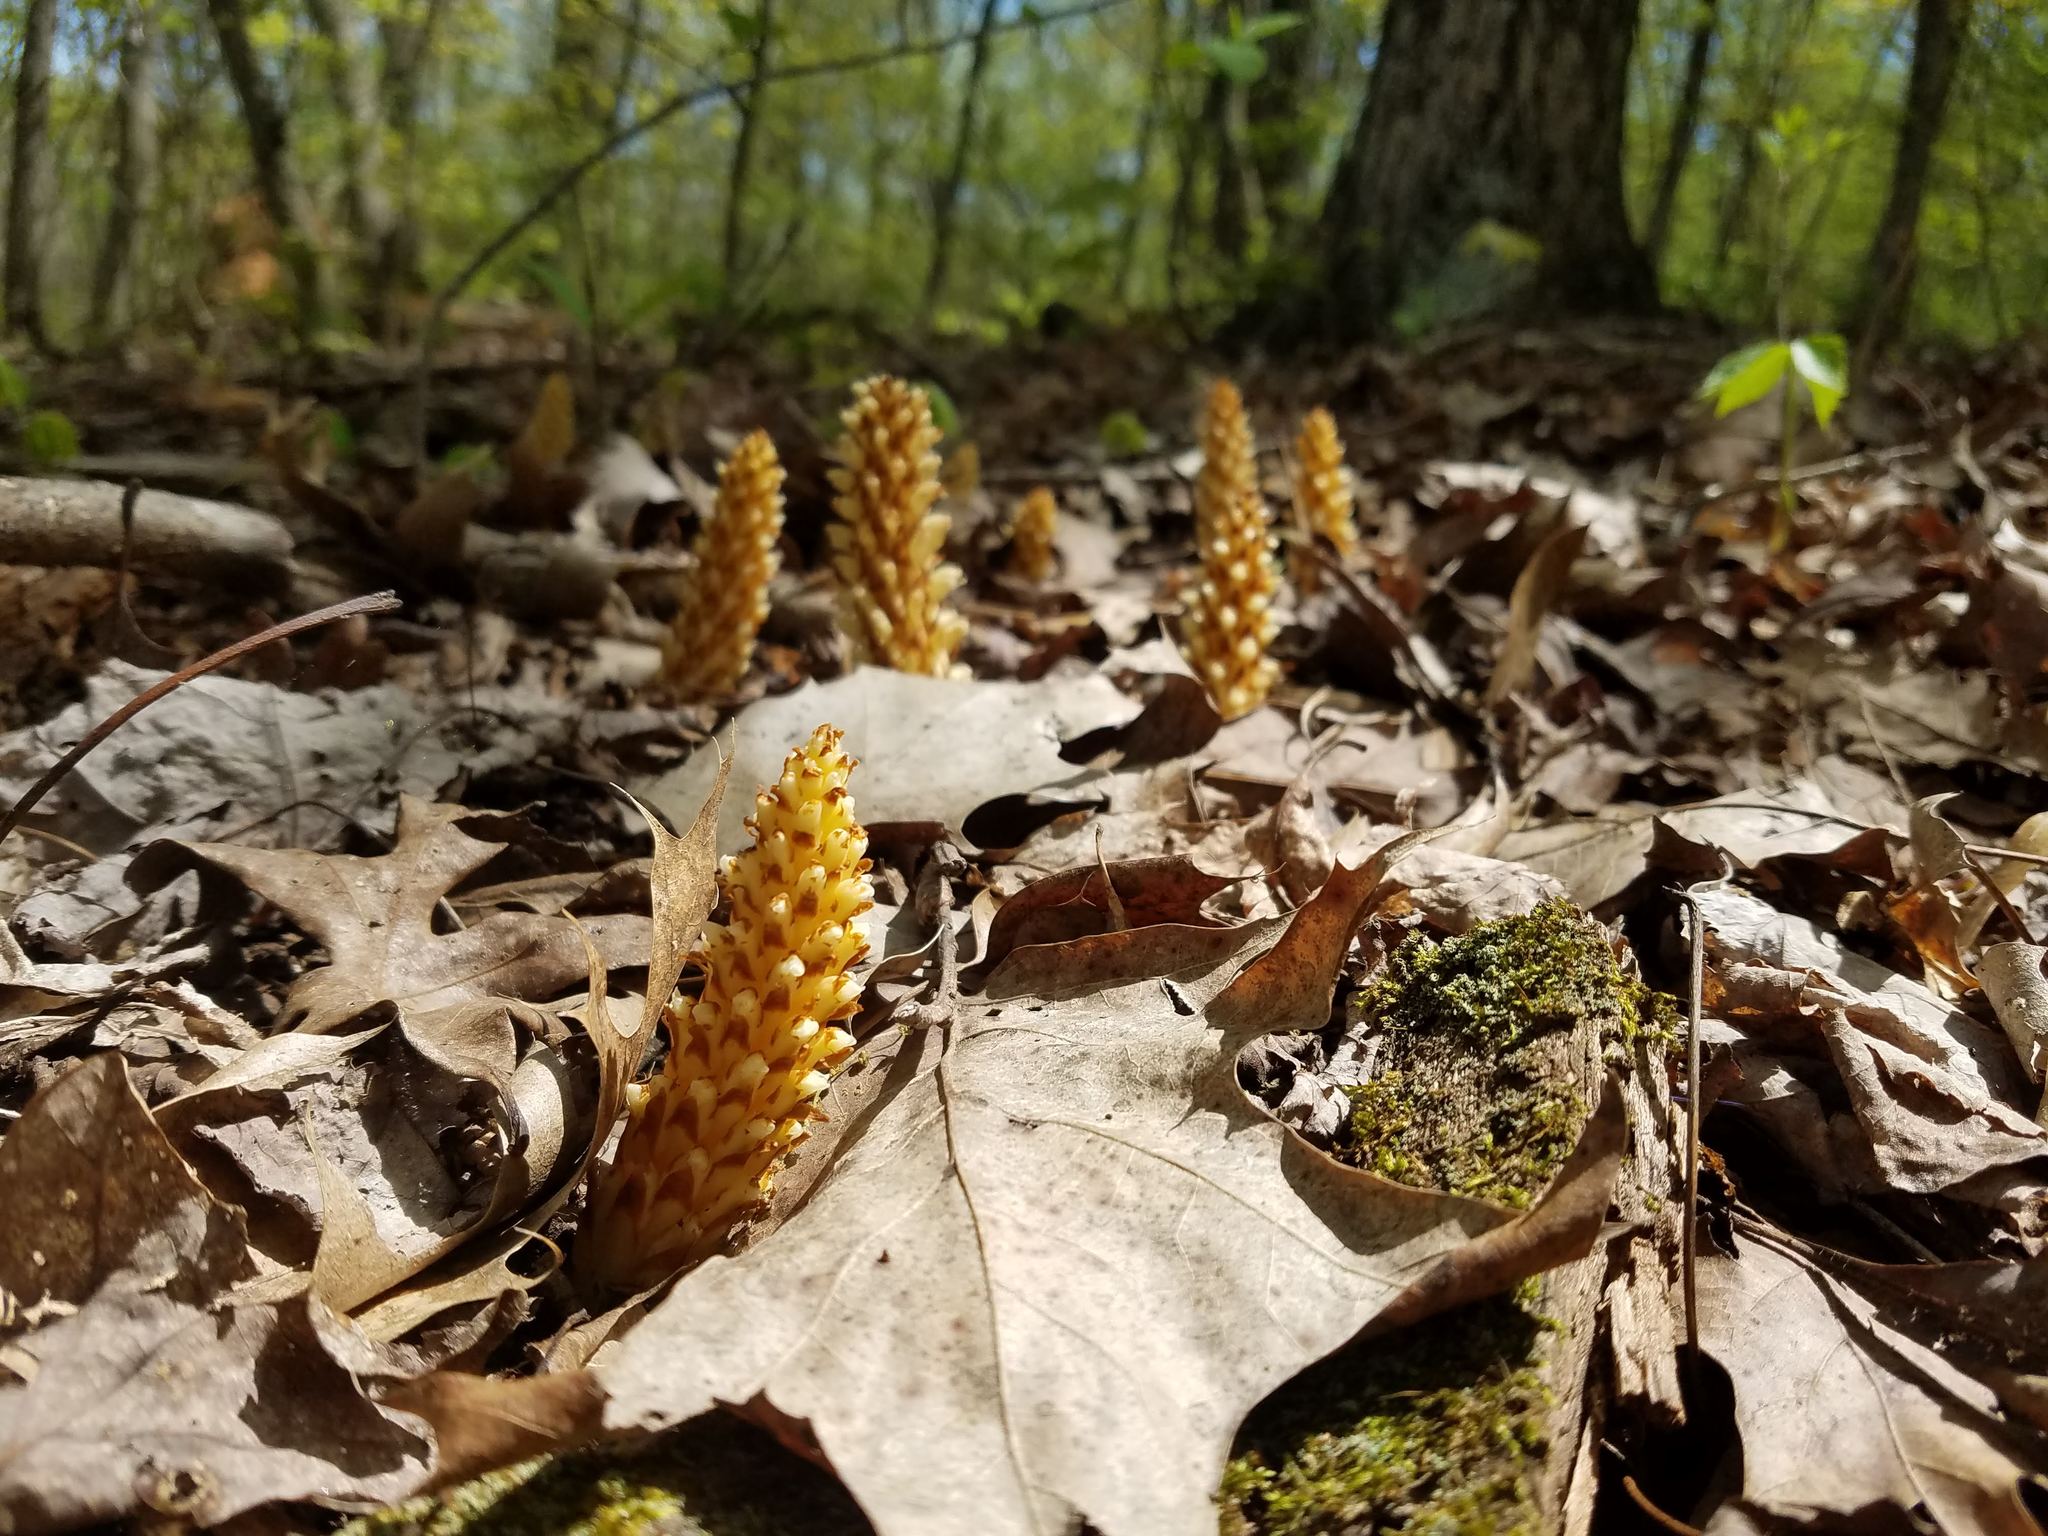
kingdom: Plantae
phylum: Tracheophyta
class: Magnoliopsida
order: Lamiales
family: Orobanchaceae
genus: Conopholis
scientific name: Conopholis americana
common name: American cancer-root
